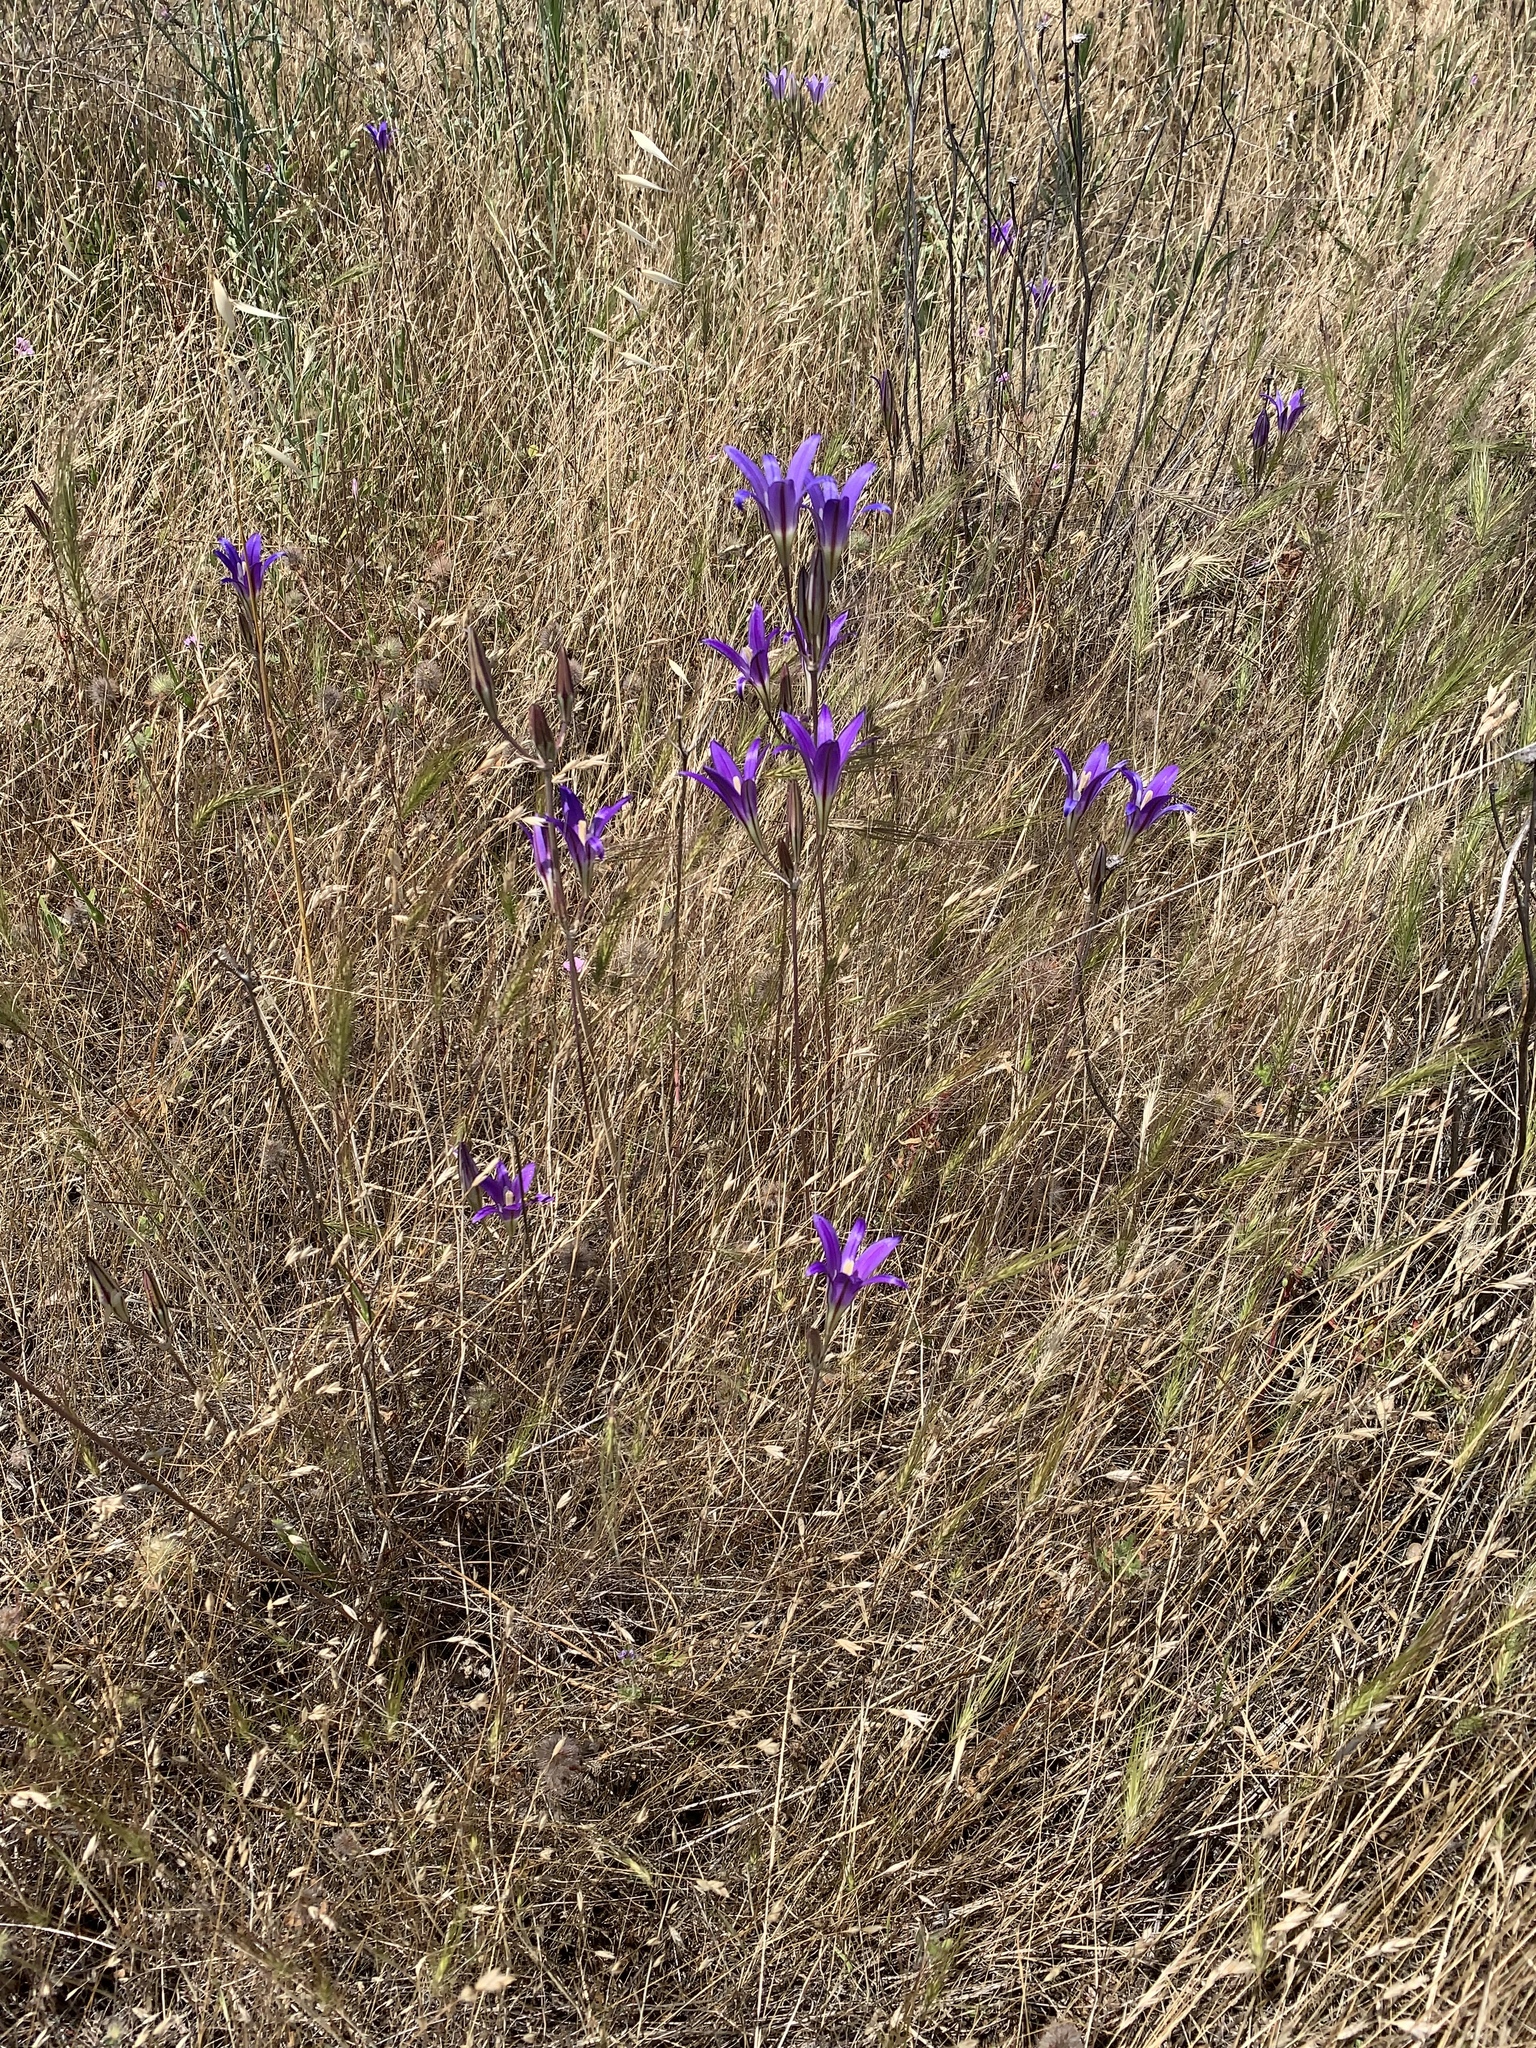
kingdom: Plantae
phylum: Tracheophyta
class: Liliopsida
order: Asparagales
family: Asparagaceae
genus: Brodiaea
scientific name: Brodiaea elegans
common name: Elegant cluster-lily
